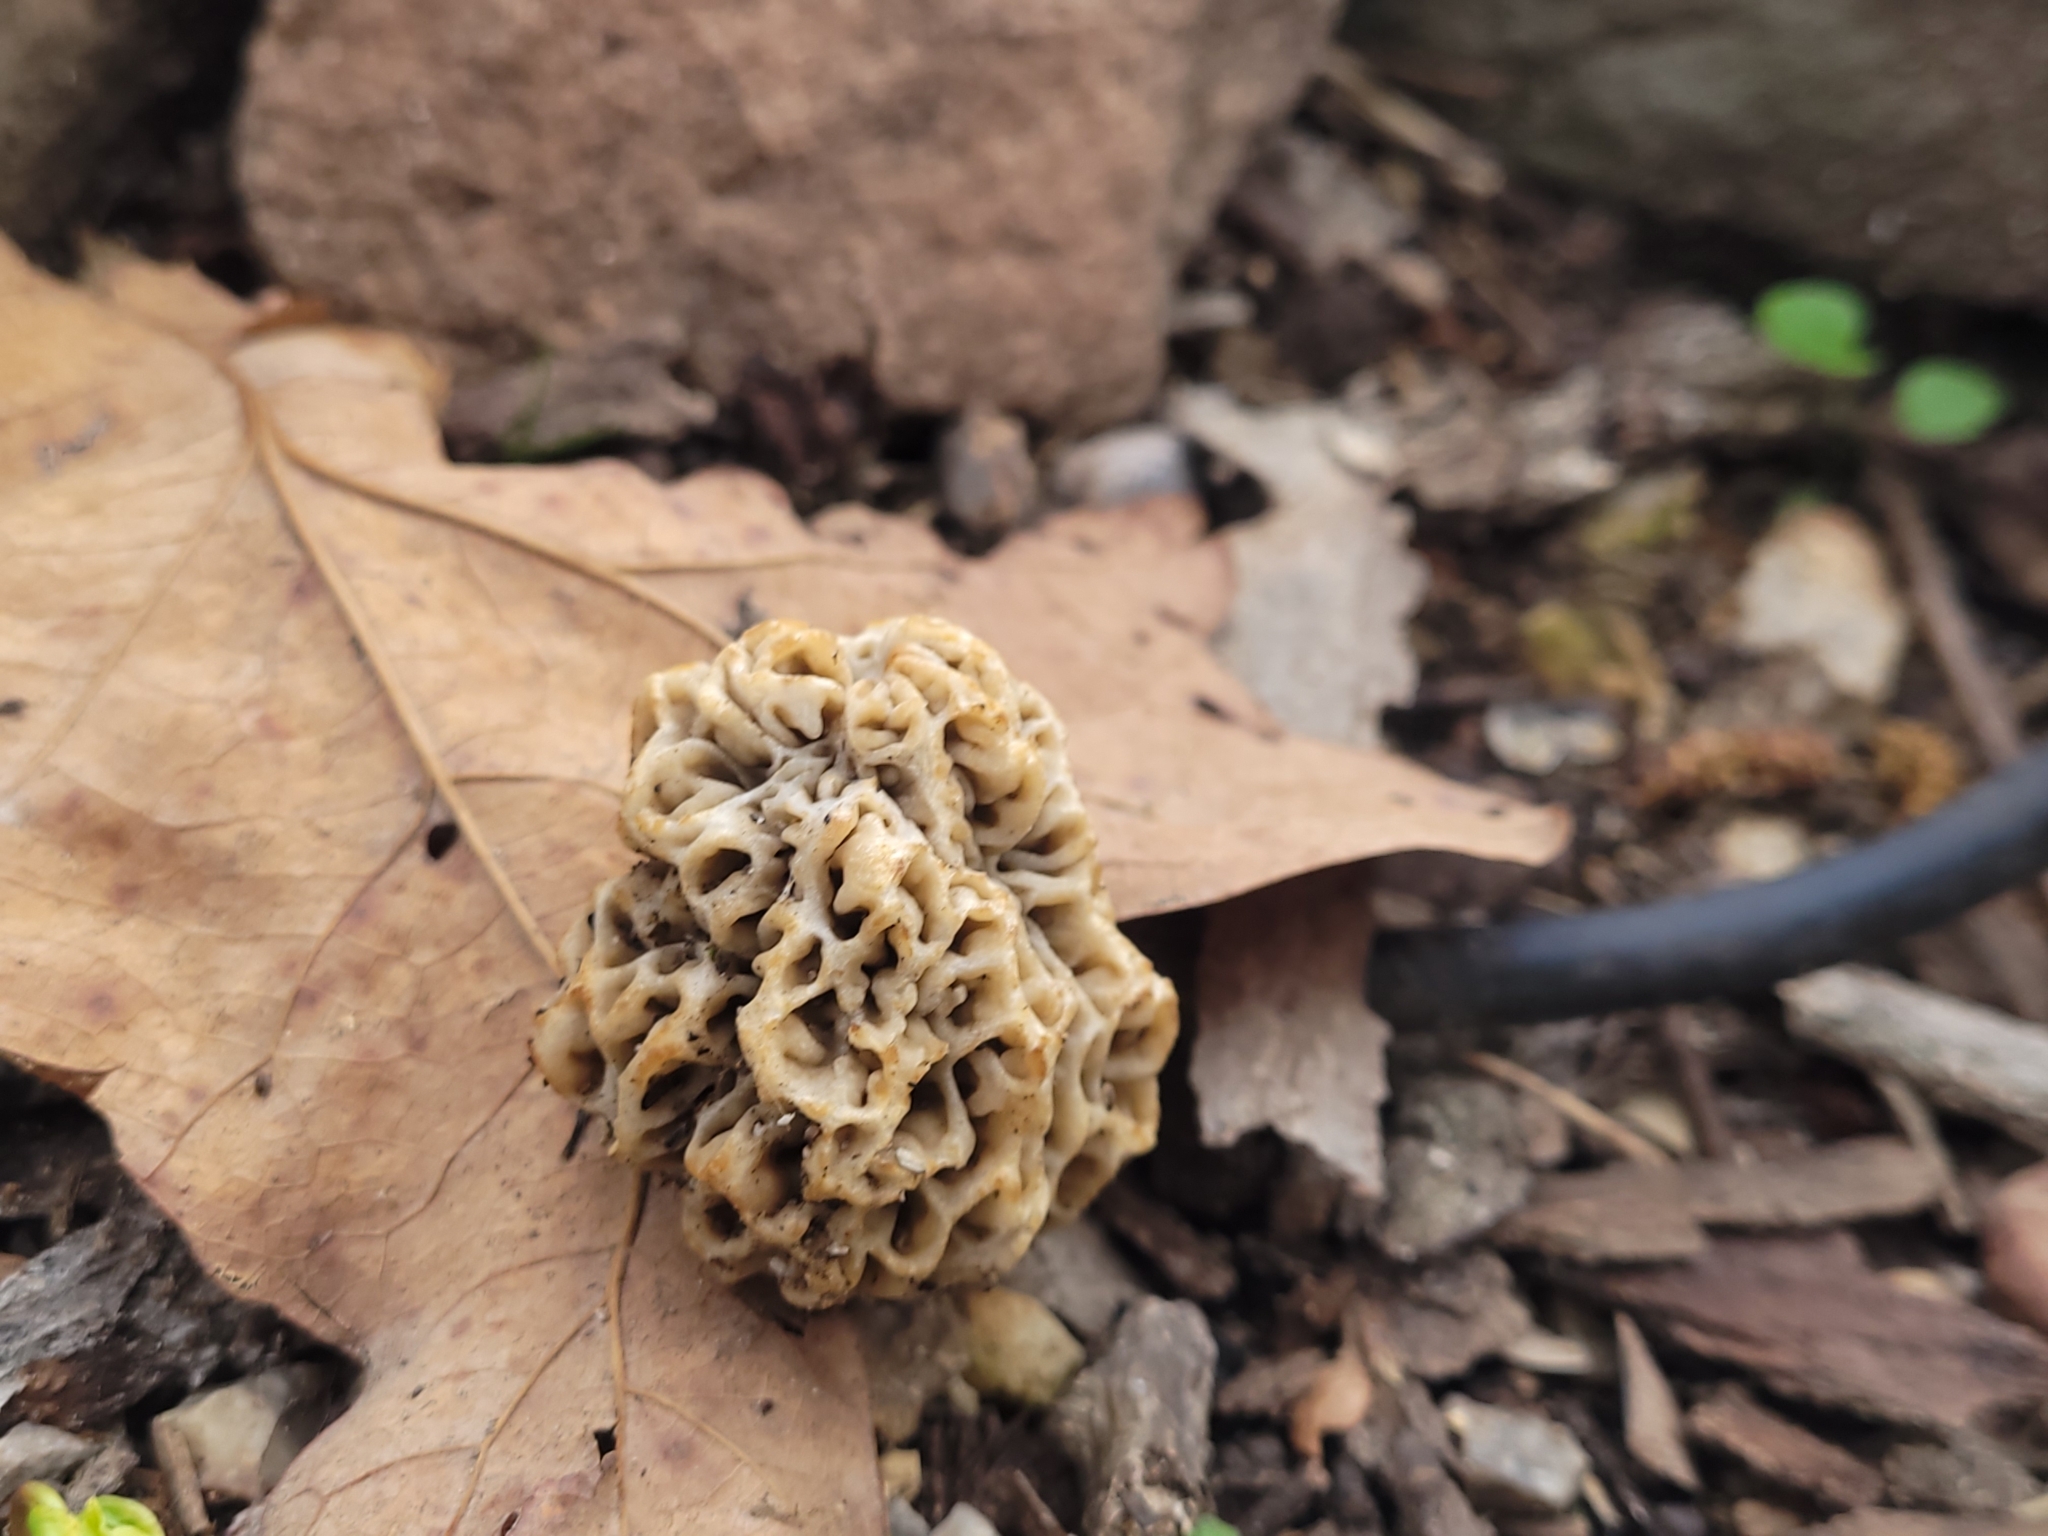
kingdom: Fungi
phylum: Ascomycota
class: Pezizomycetes
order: Pezizales
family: Morchellaceae
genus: Morchella
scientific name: Morchella americana
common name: White morel
